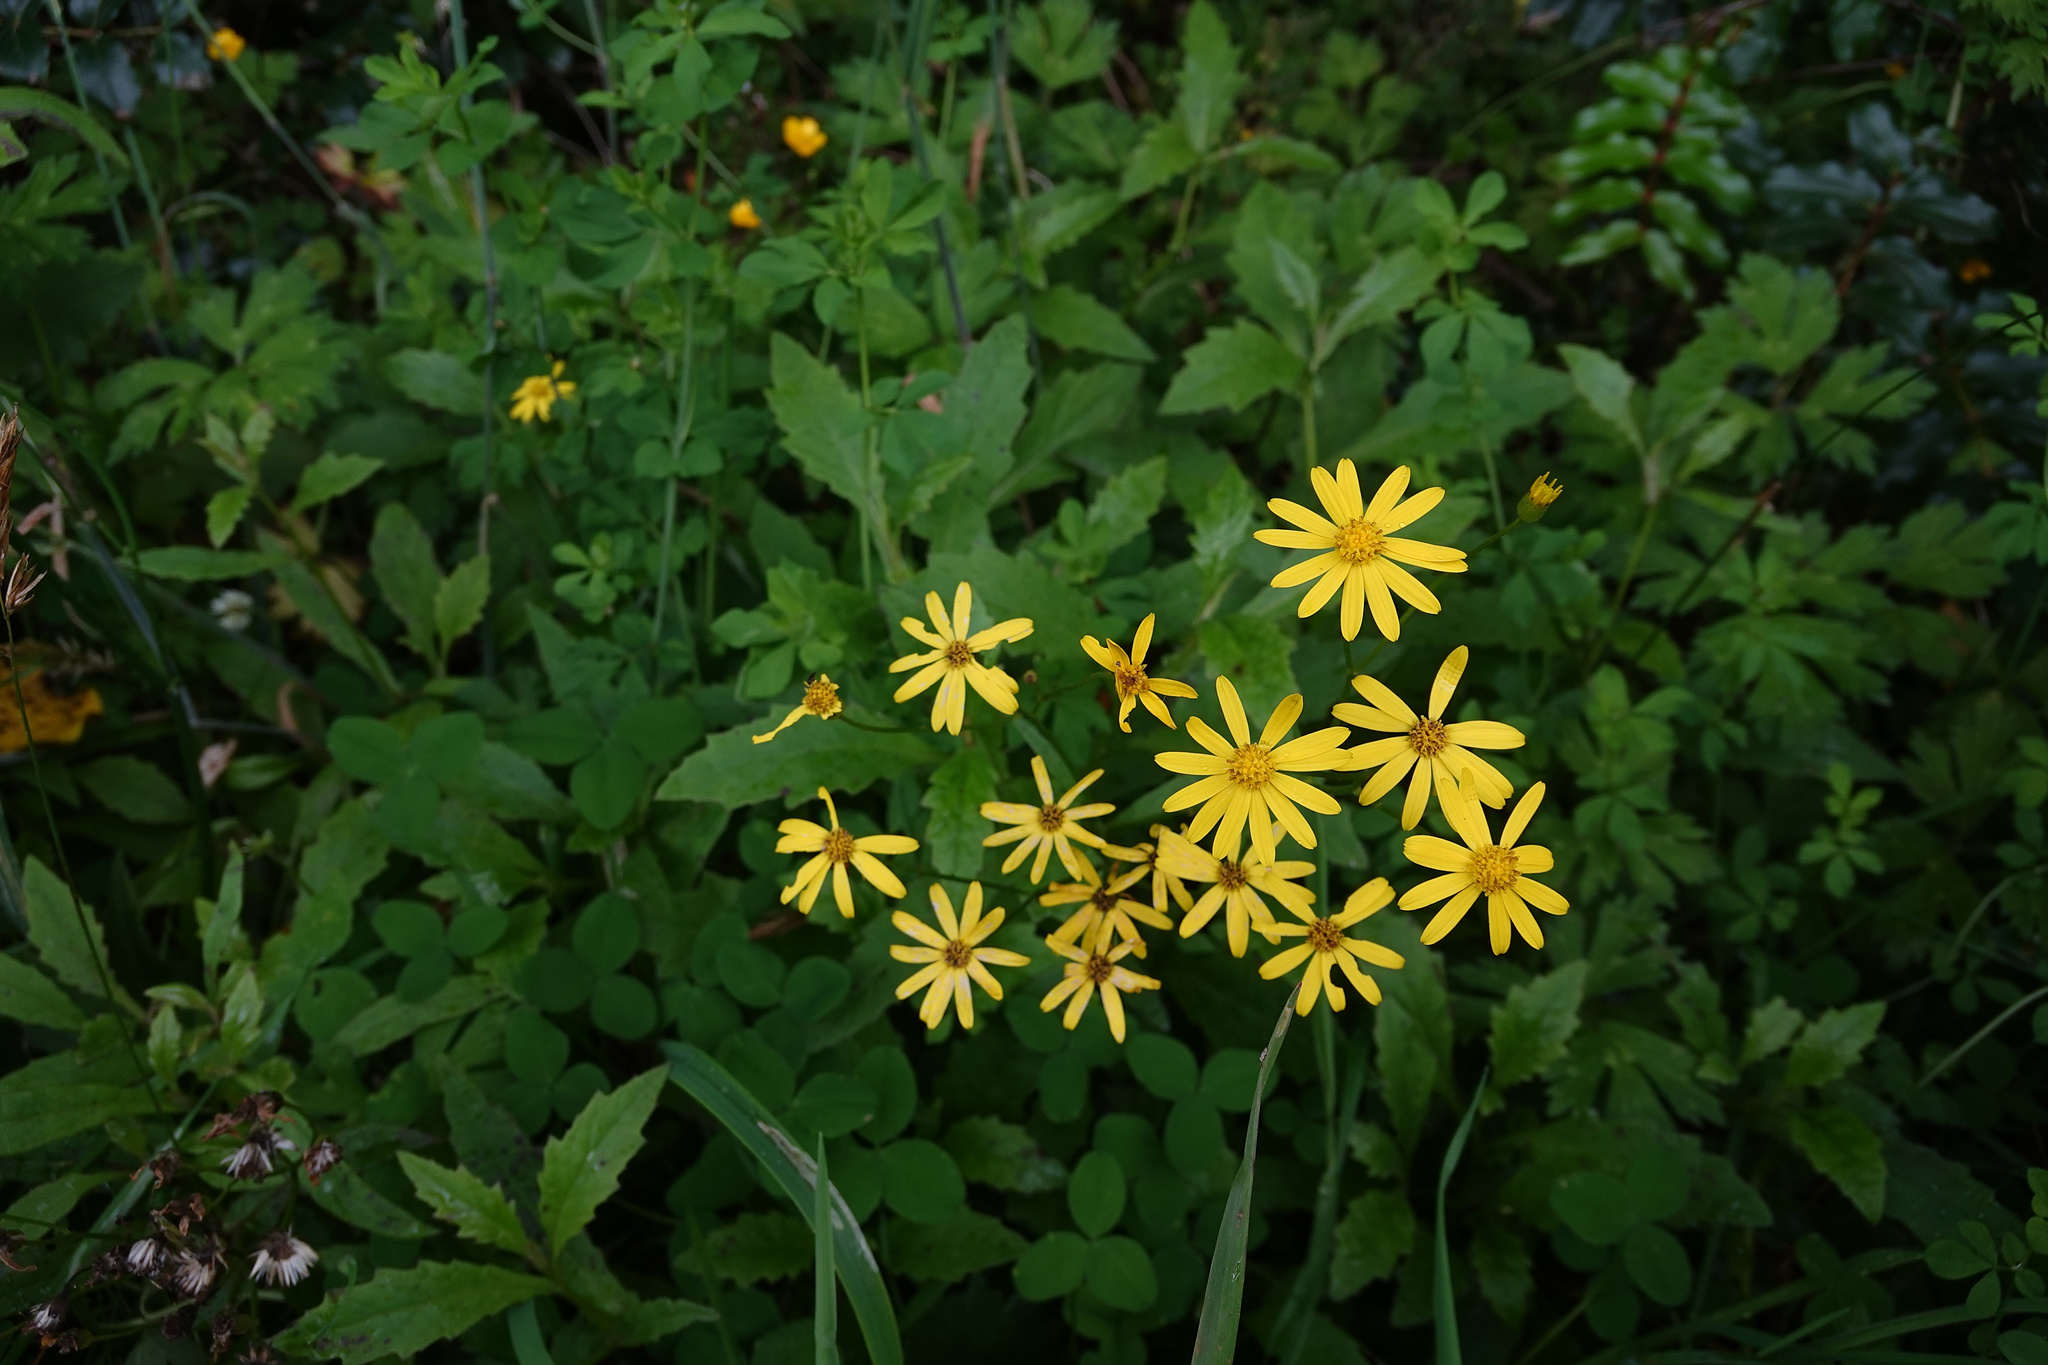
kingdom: Plantae
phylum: Tracheophyta
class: Magnoliopsida
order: Asterales
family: Asteraceae
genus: Senecio
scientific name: Senecio rufiglandulosus
